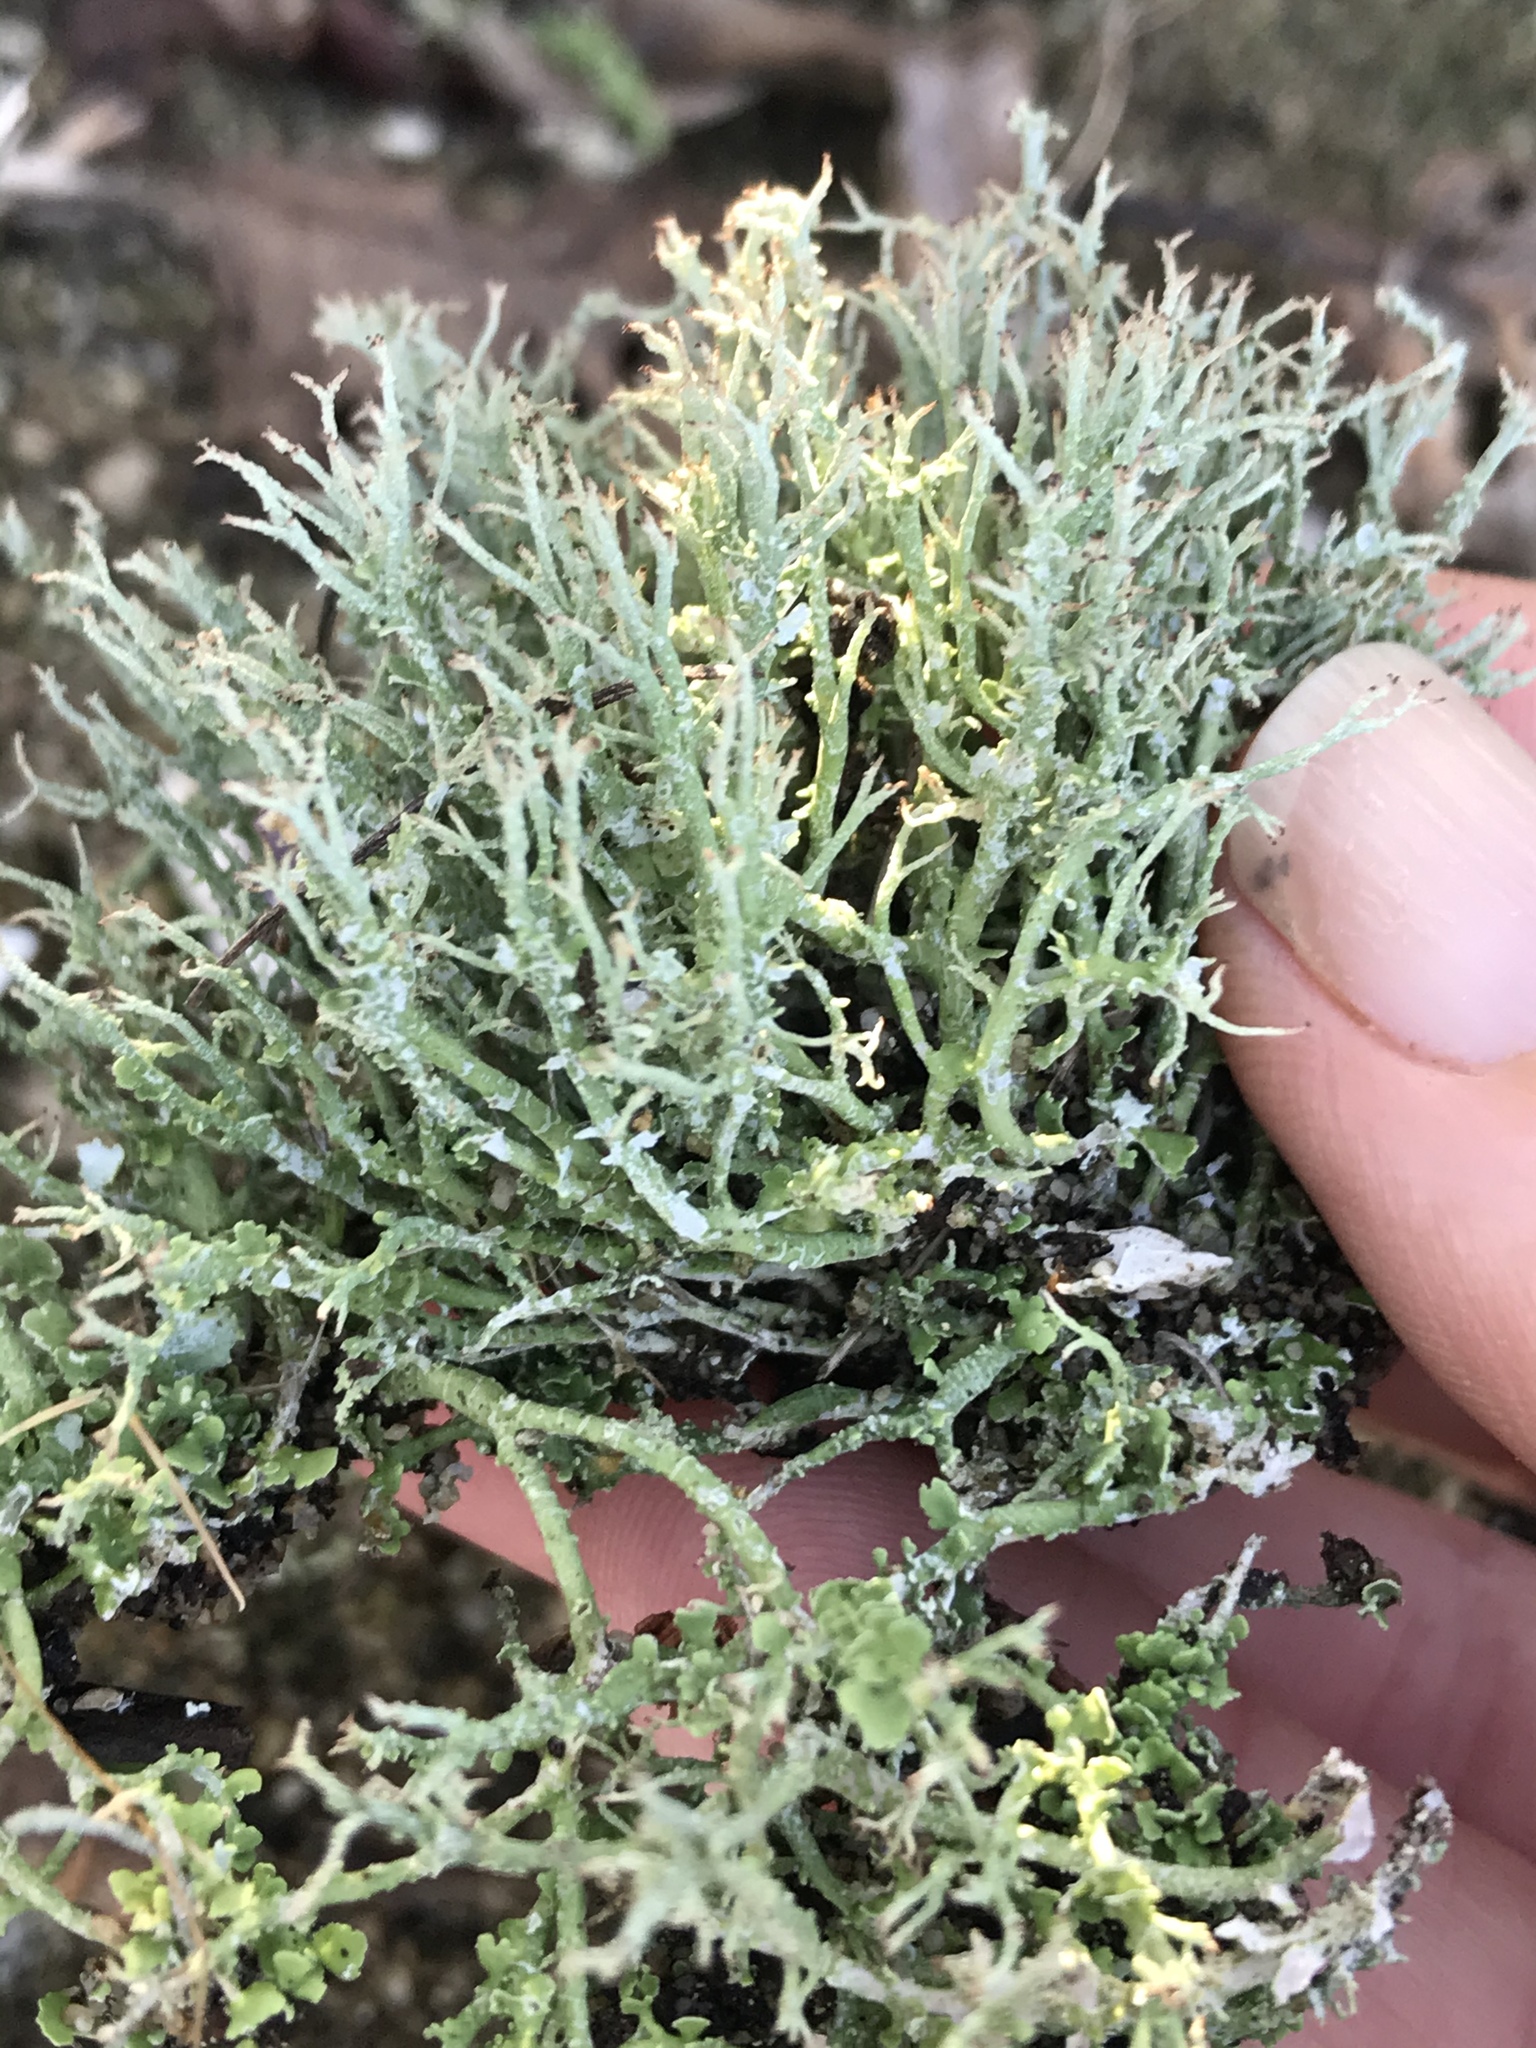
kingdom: Fungi
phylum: Ascomycota
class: Lecanoromycetes
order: Lecanorales
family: Cladoniaceae
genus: Cladonia
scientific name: Cladonia furcata
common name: Many-forked cladonia
